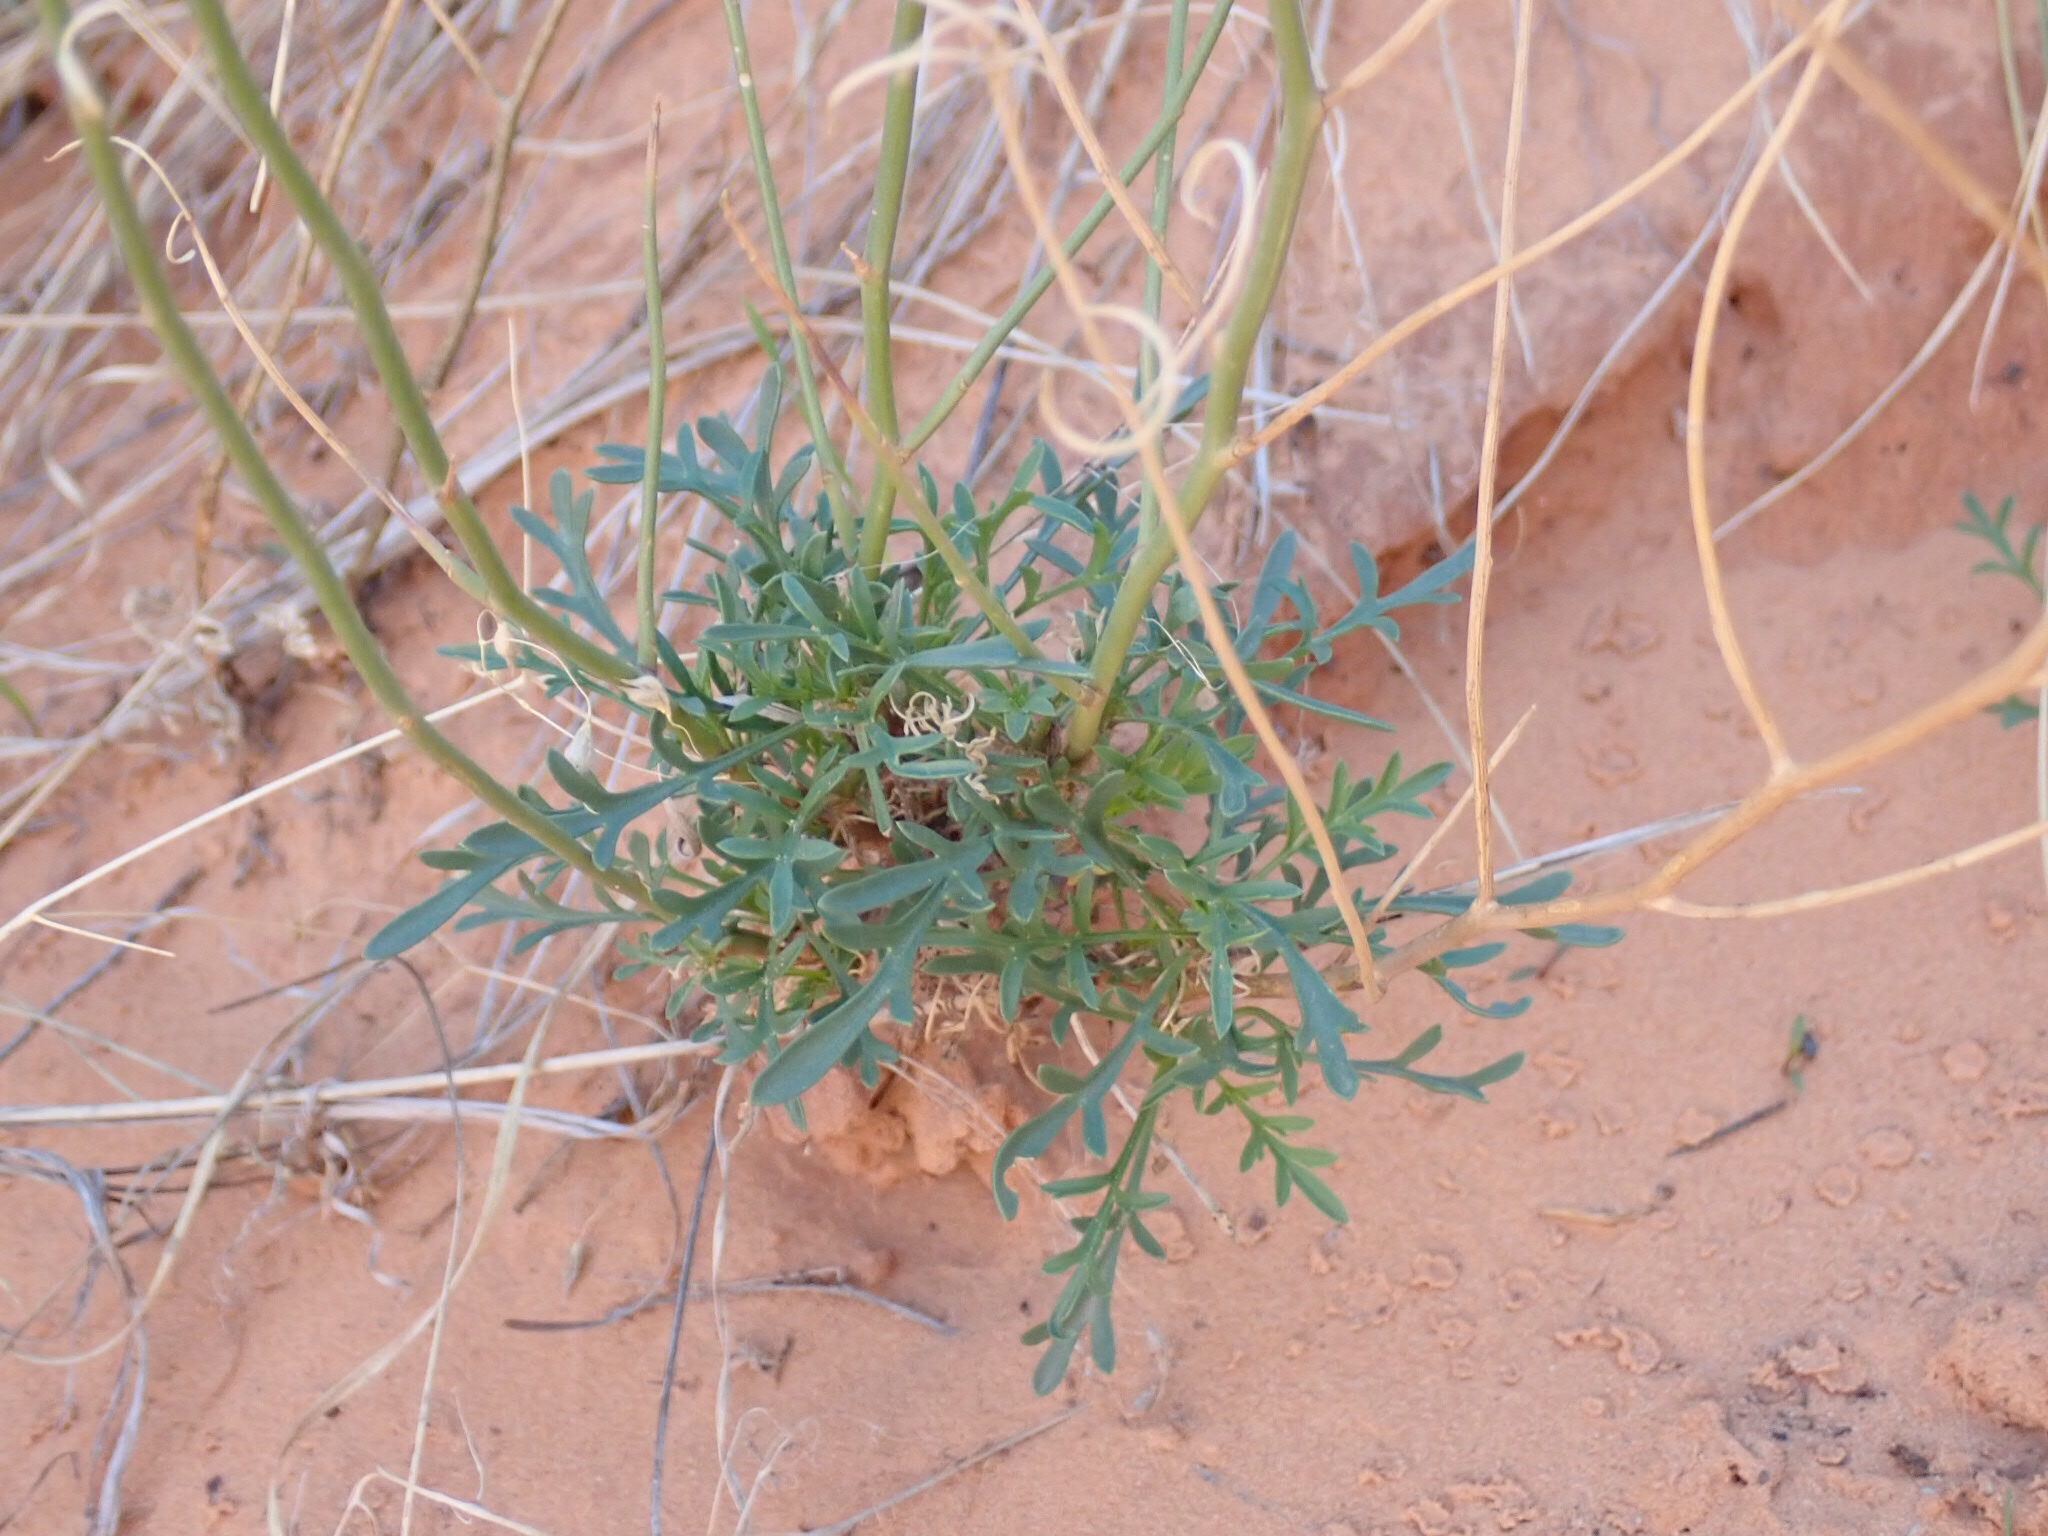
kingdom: Plantae
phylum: Tracheophyta
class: Magnoliopsida
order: Asterales
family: Asteraceae
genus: Gaillardia
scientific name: Gaillardia pinnatifida
